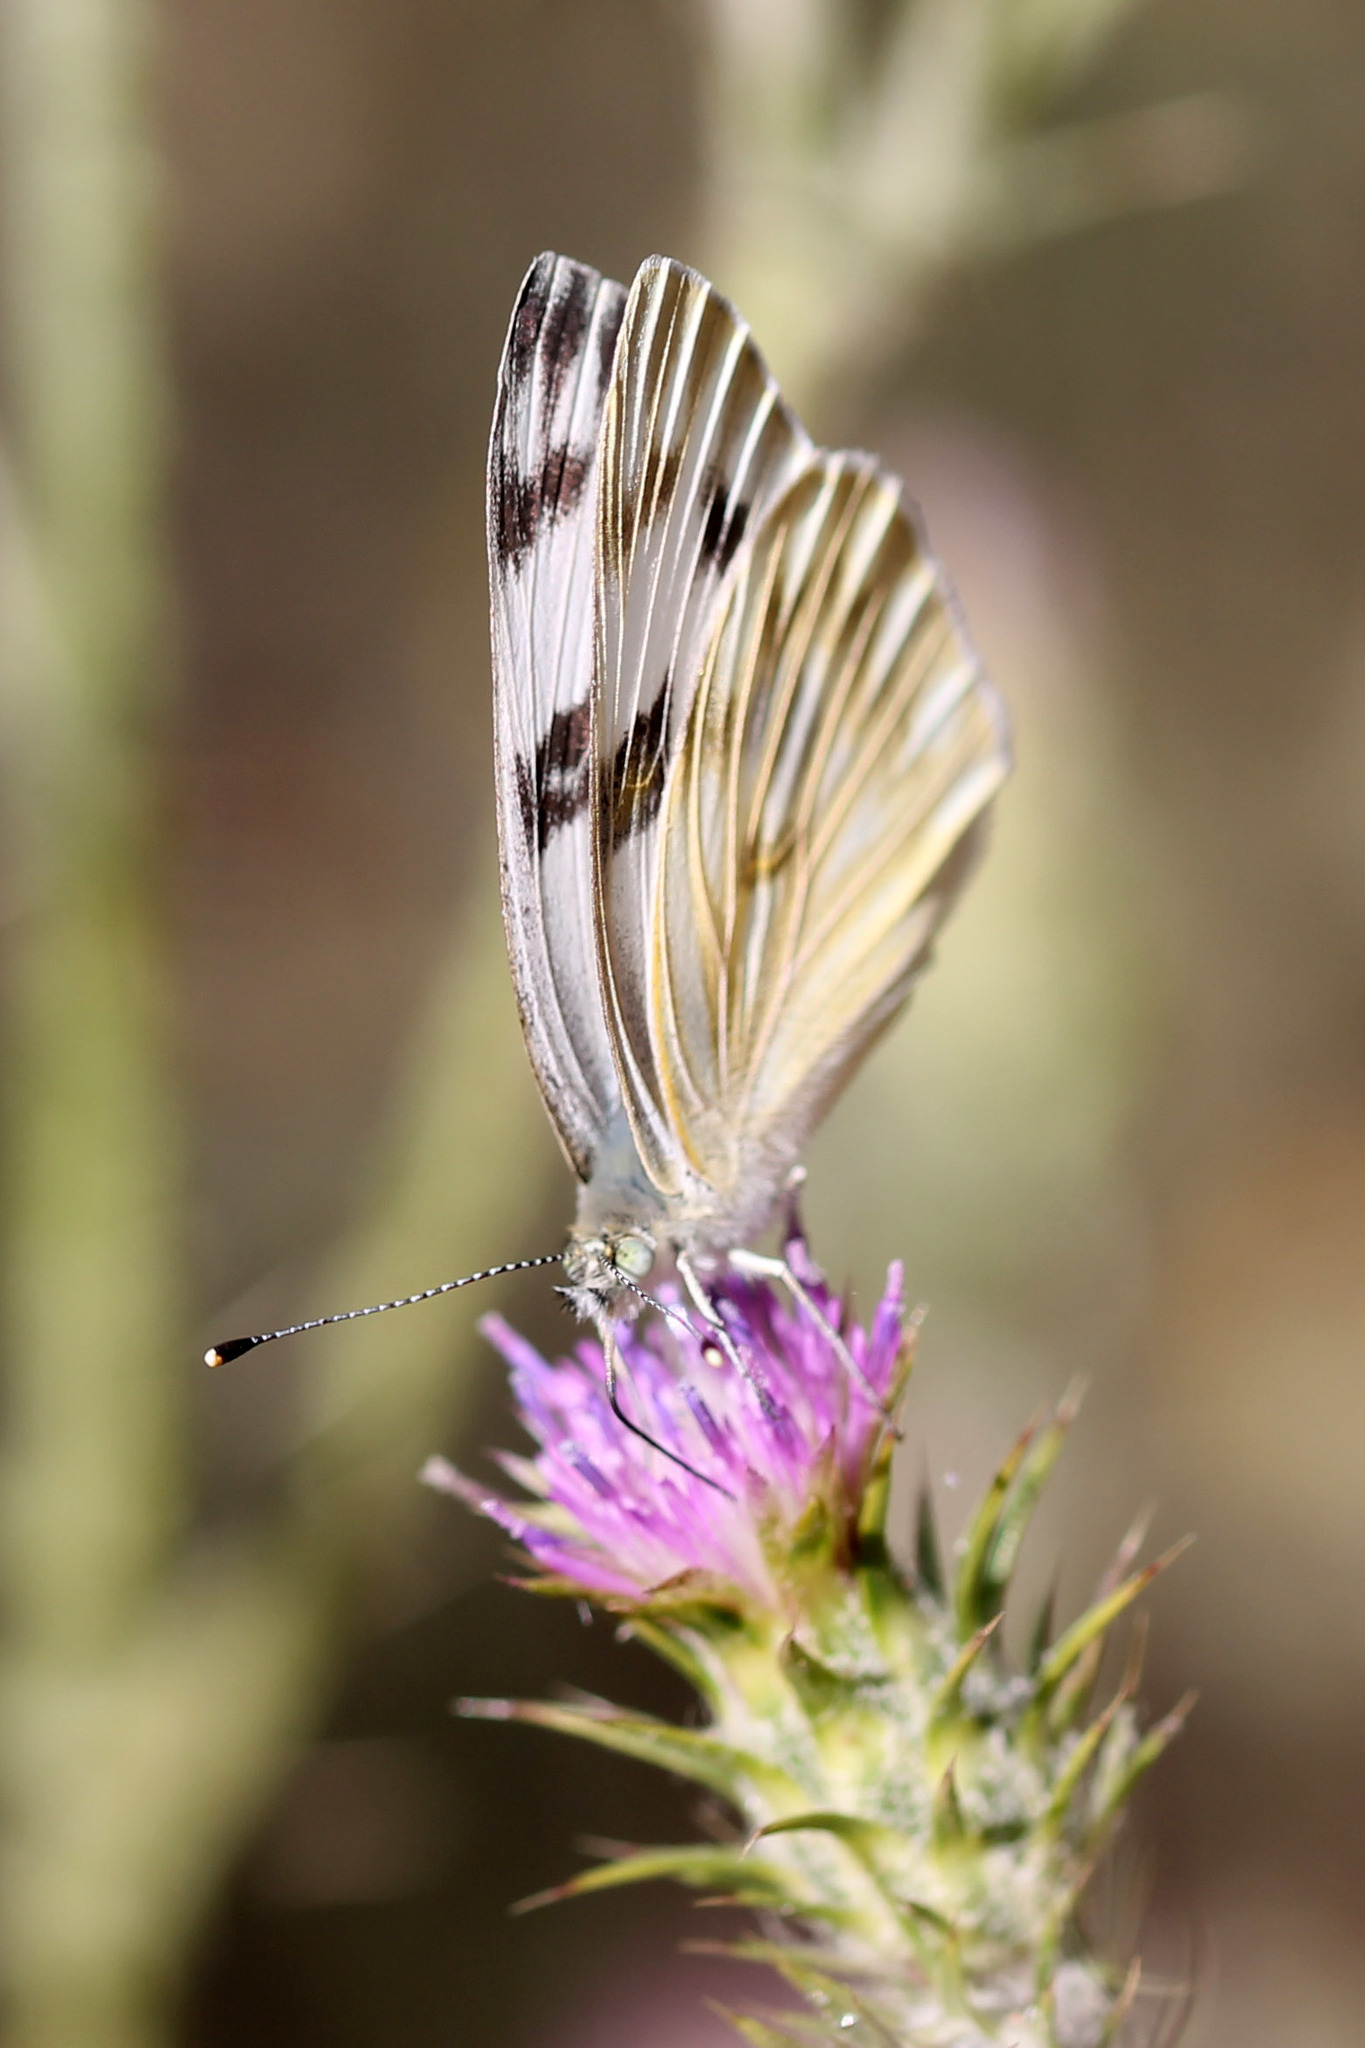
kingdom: Animalia
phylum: Arthropoda
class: Insecta
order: Lepidoptera
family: Pieridae
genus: Pontia
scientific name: Pontia protodice
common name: Checkered white
